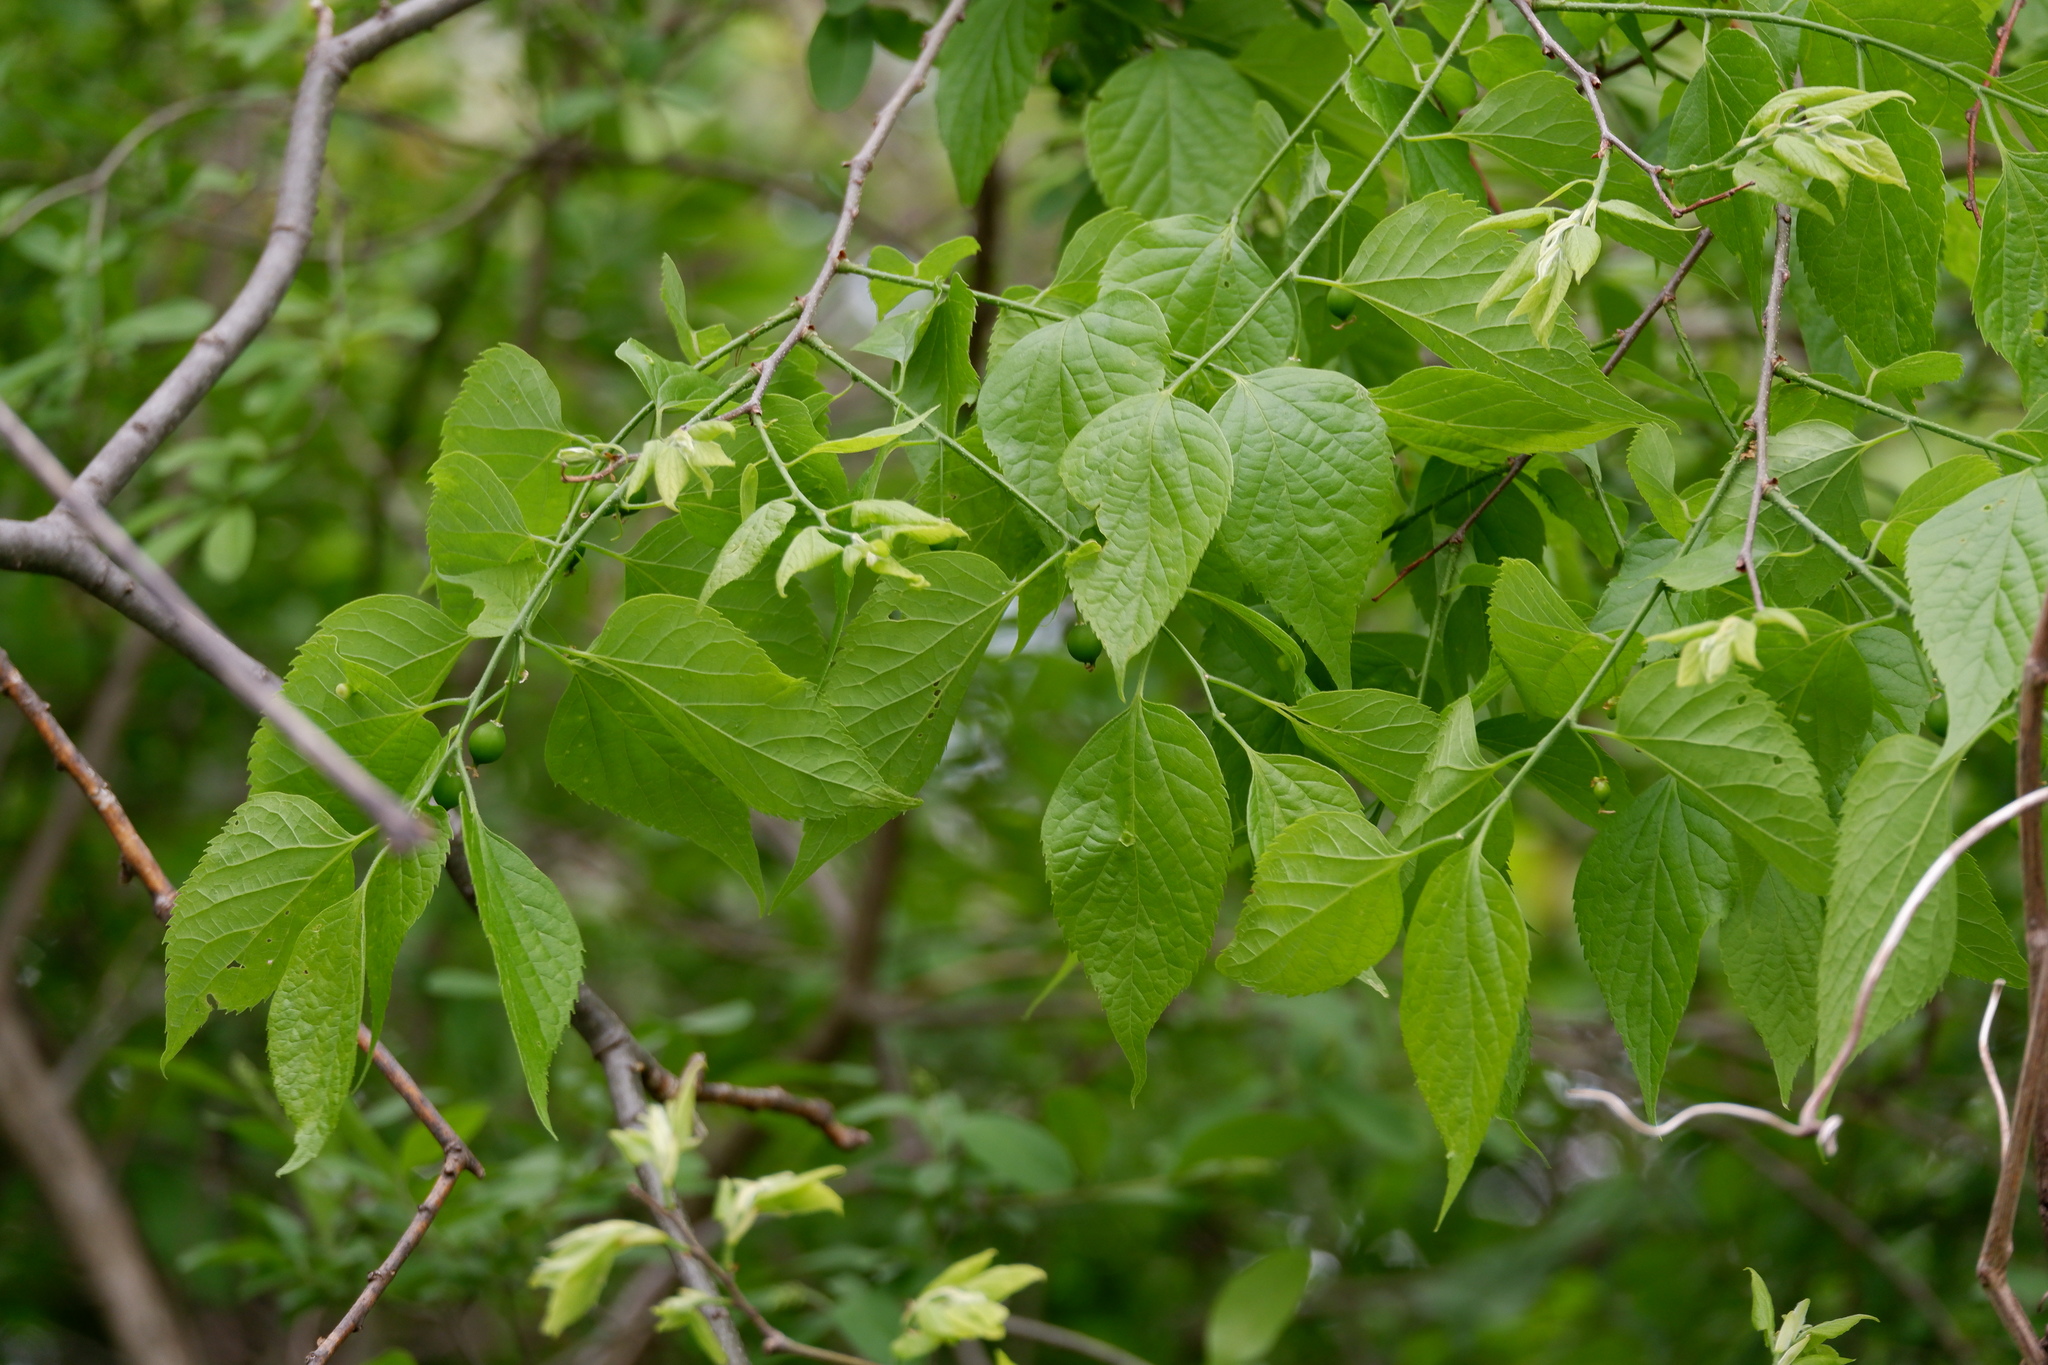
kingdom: Plantae
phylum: Tracheophyta
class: Magnoliopsida
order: Rosales
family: Cannabaceae
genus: Celtis
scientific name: Celtis occidentalis
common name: Common hackberry
